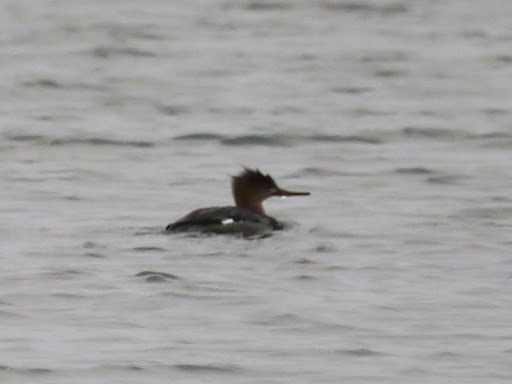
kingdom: Animalia
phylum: Chordata
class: Aves
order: Anseriformes
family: Anatidae
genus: Mergus
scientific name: Mergus serrator
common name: Red-breasted merganser
